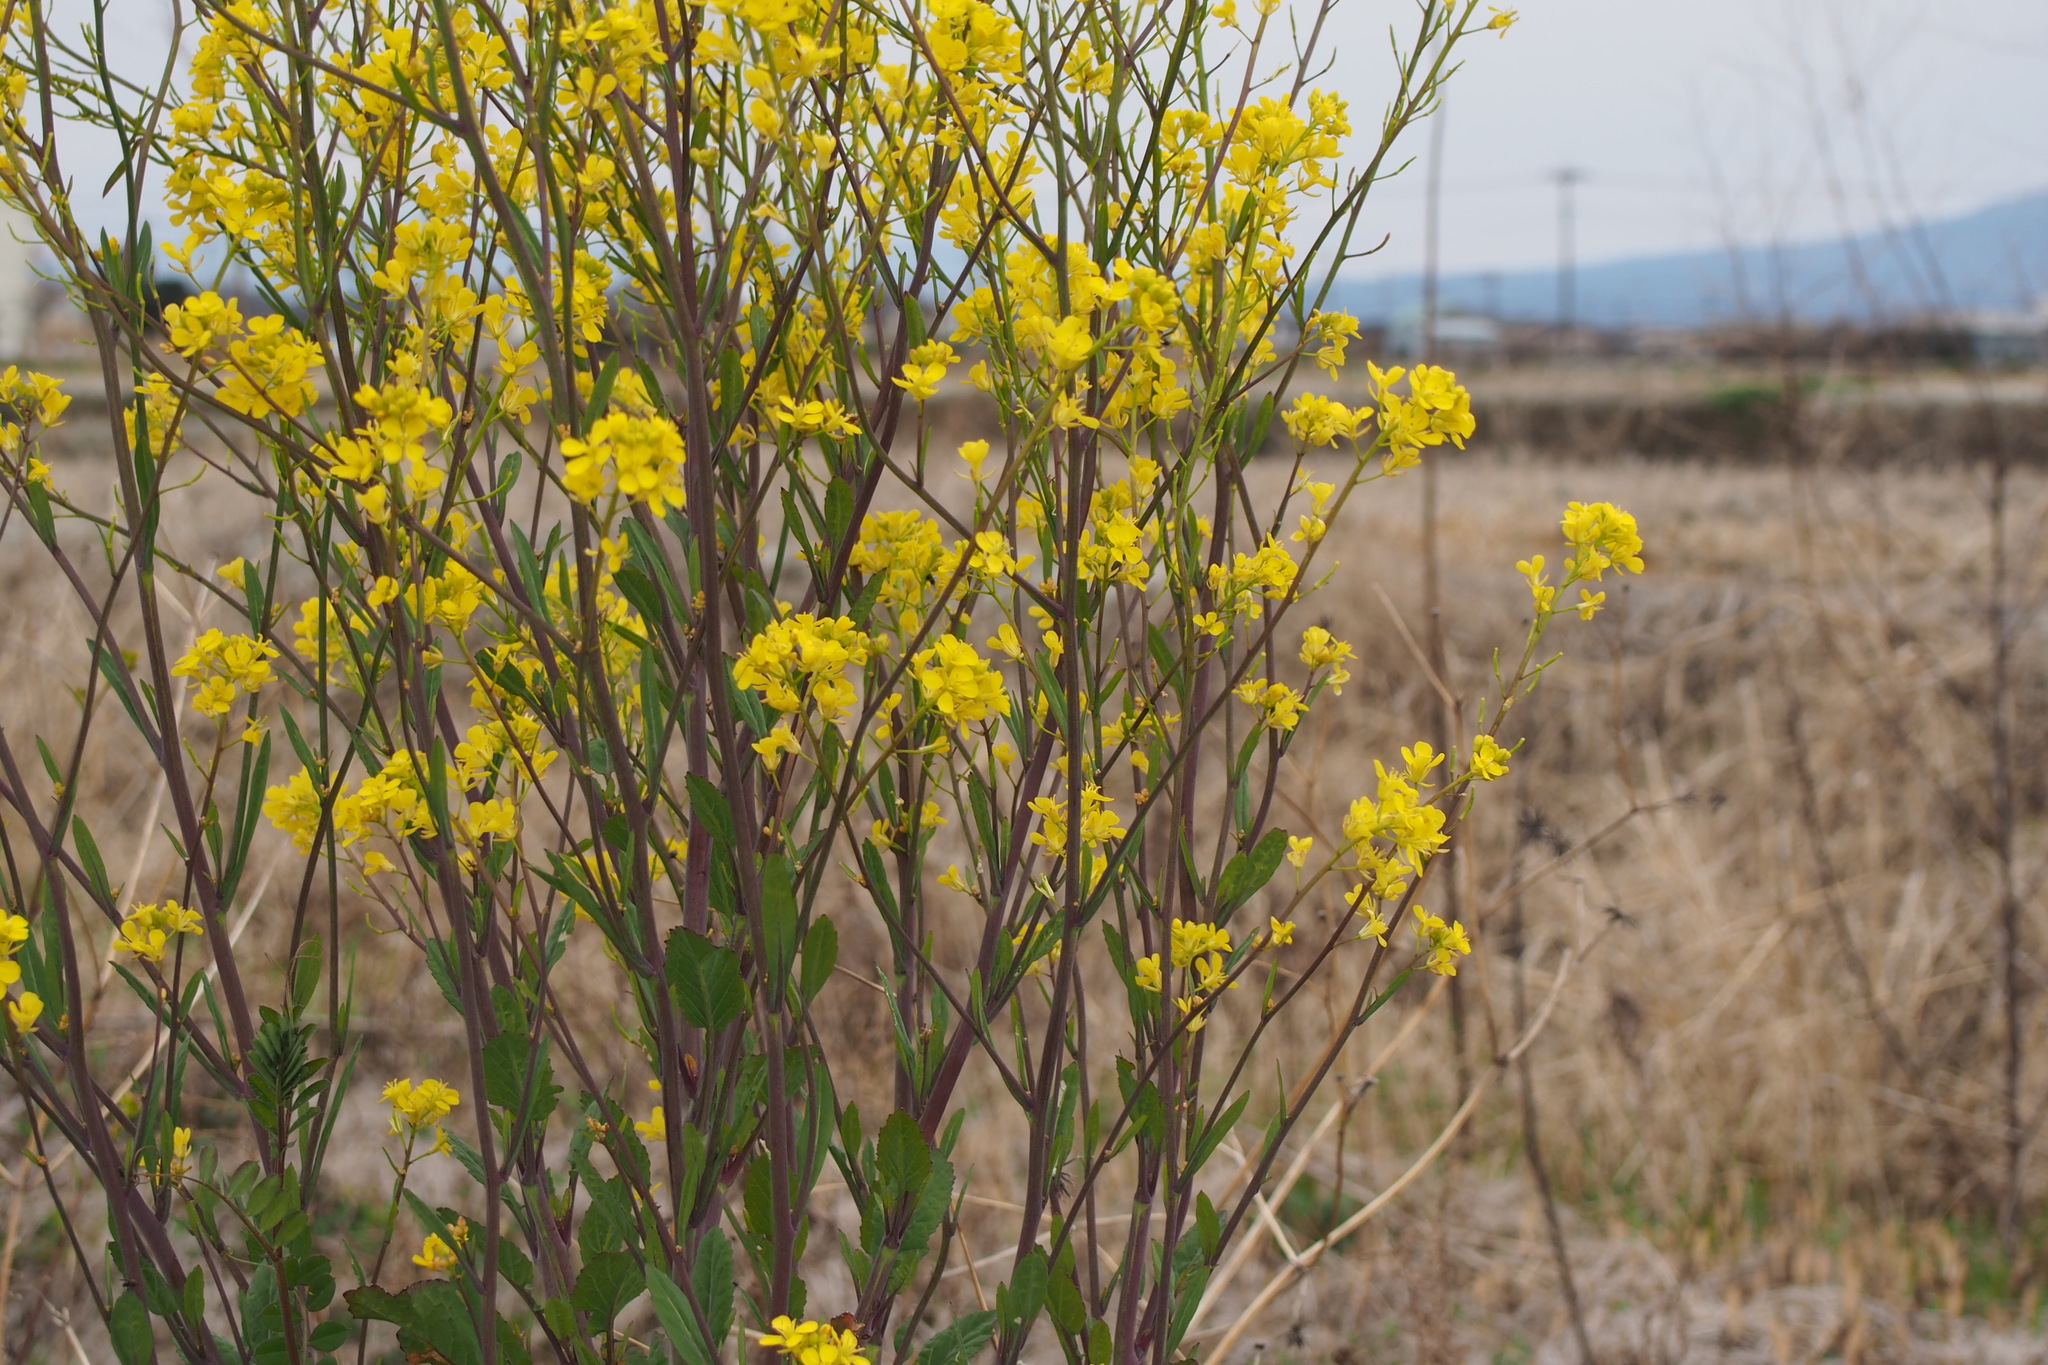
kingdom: Plantae
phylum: Tracheophyta
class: Magnoliopsida
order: Brassicales
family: Brassicaceae
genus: Brassica
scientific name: Brassica juncea
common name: Brown mustard
